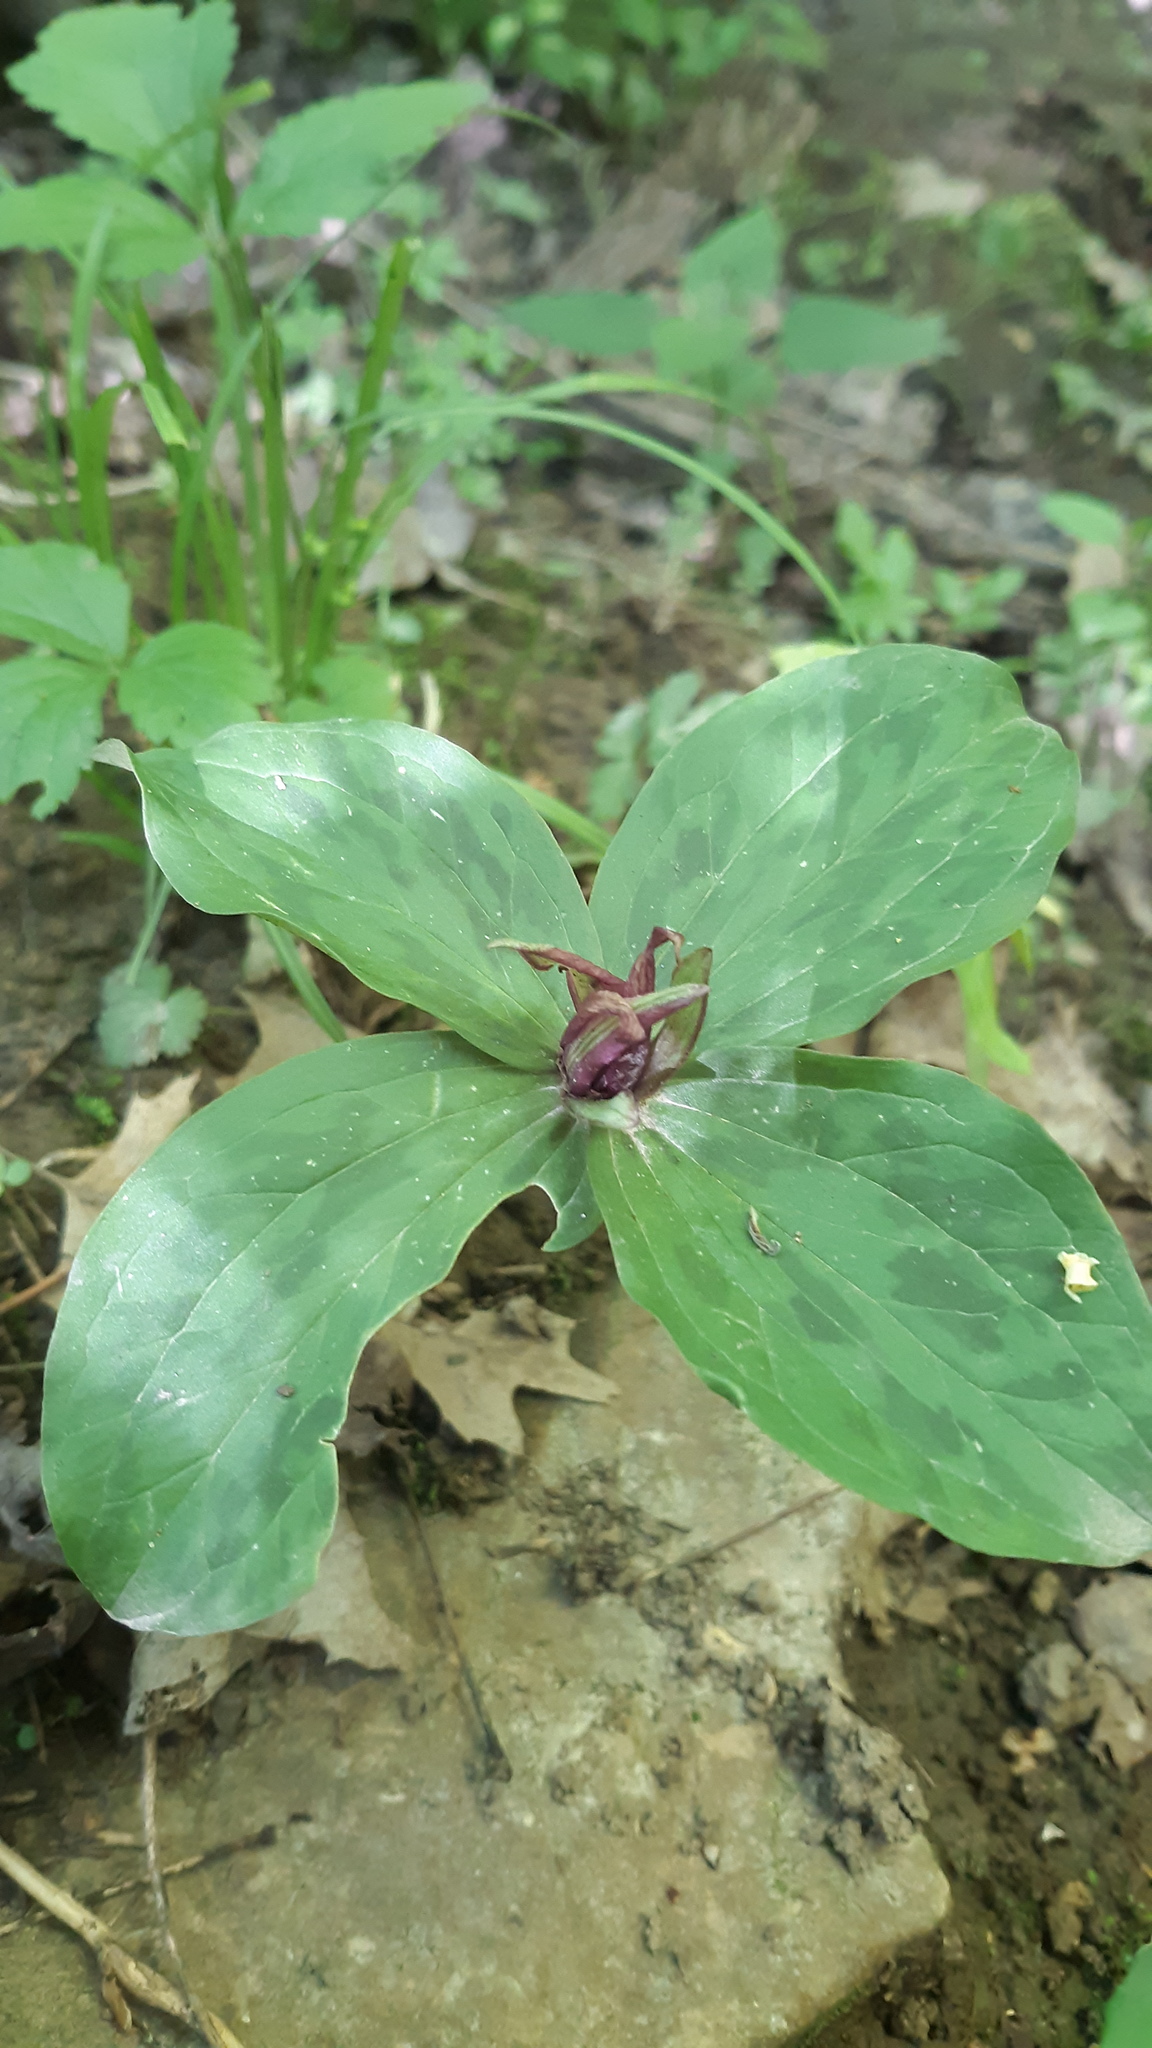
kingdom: Plantae
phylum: Tracheophyta
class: Liliopsida
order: Liliales
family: Melanthiaceae
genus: Trillium
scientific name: Trillium sessile
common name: Sessile trillium
